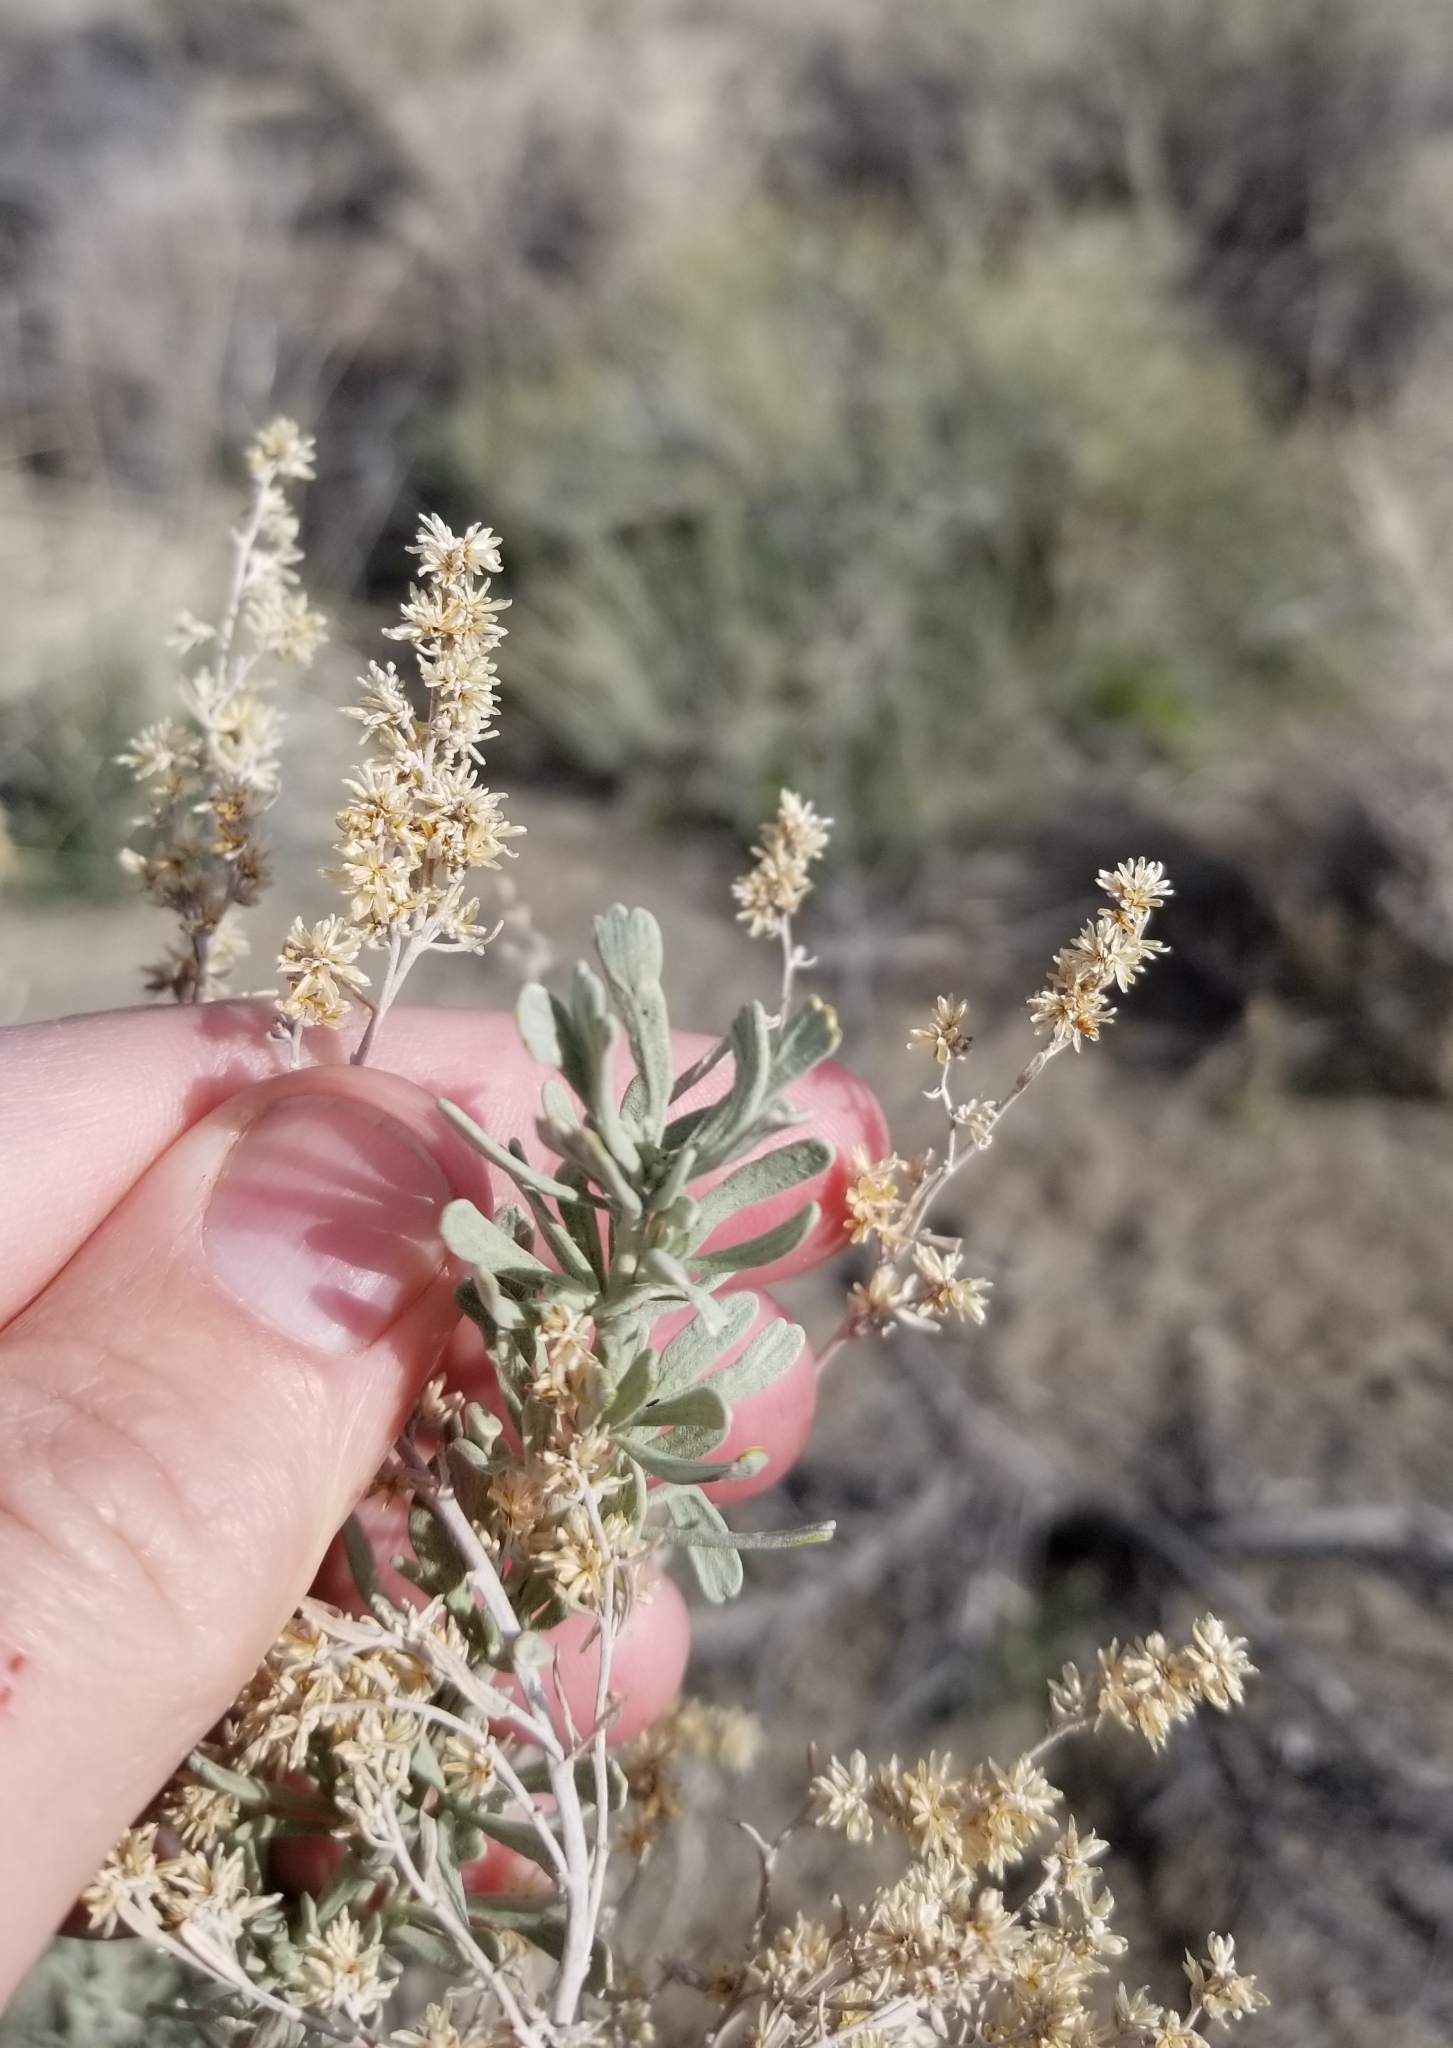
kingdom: Plantae
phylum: Tracheophyta
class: Magnoliopsida
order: Asterales
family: Asteraceae
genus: Artemisia
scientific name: Artemisia tridentata
